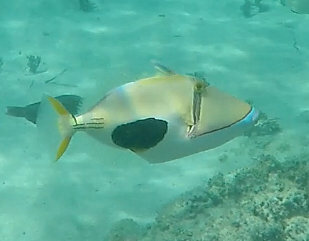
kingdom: Animalia
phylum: Chordata
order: Tetraodontiformes
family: Balistidae
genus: Rhinecanthus
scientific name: Rhinecanthus verrucosus
